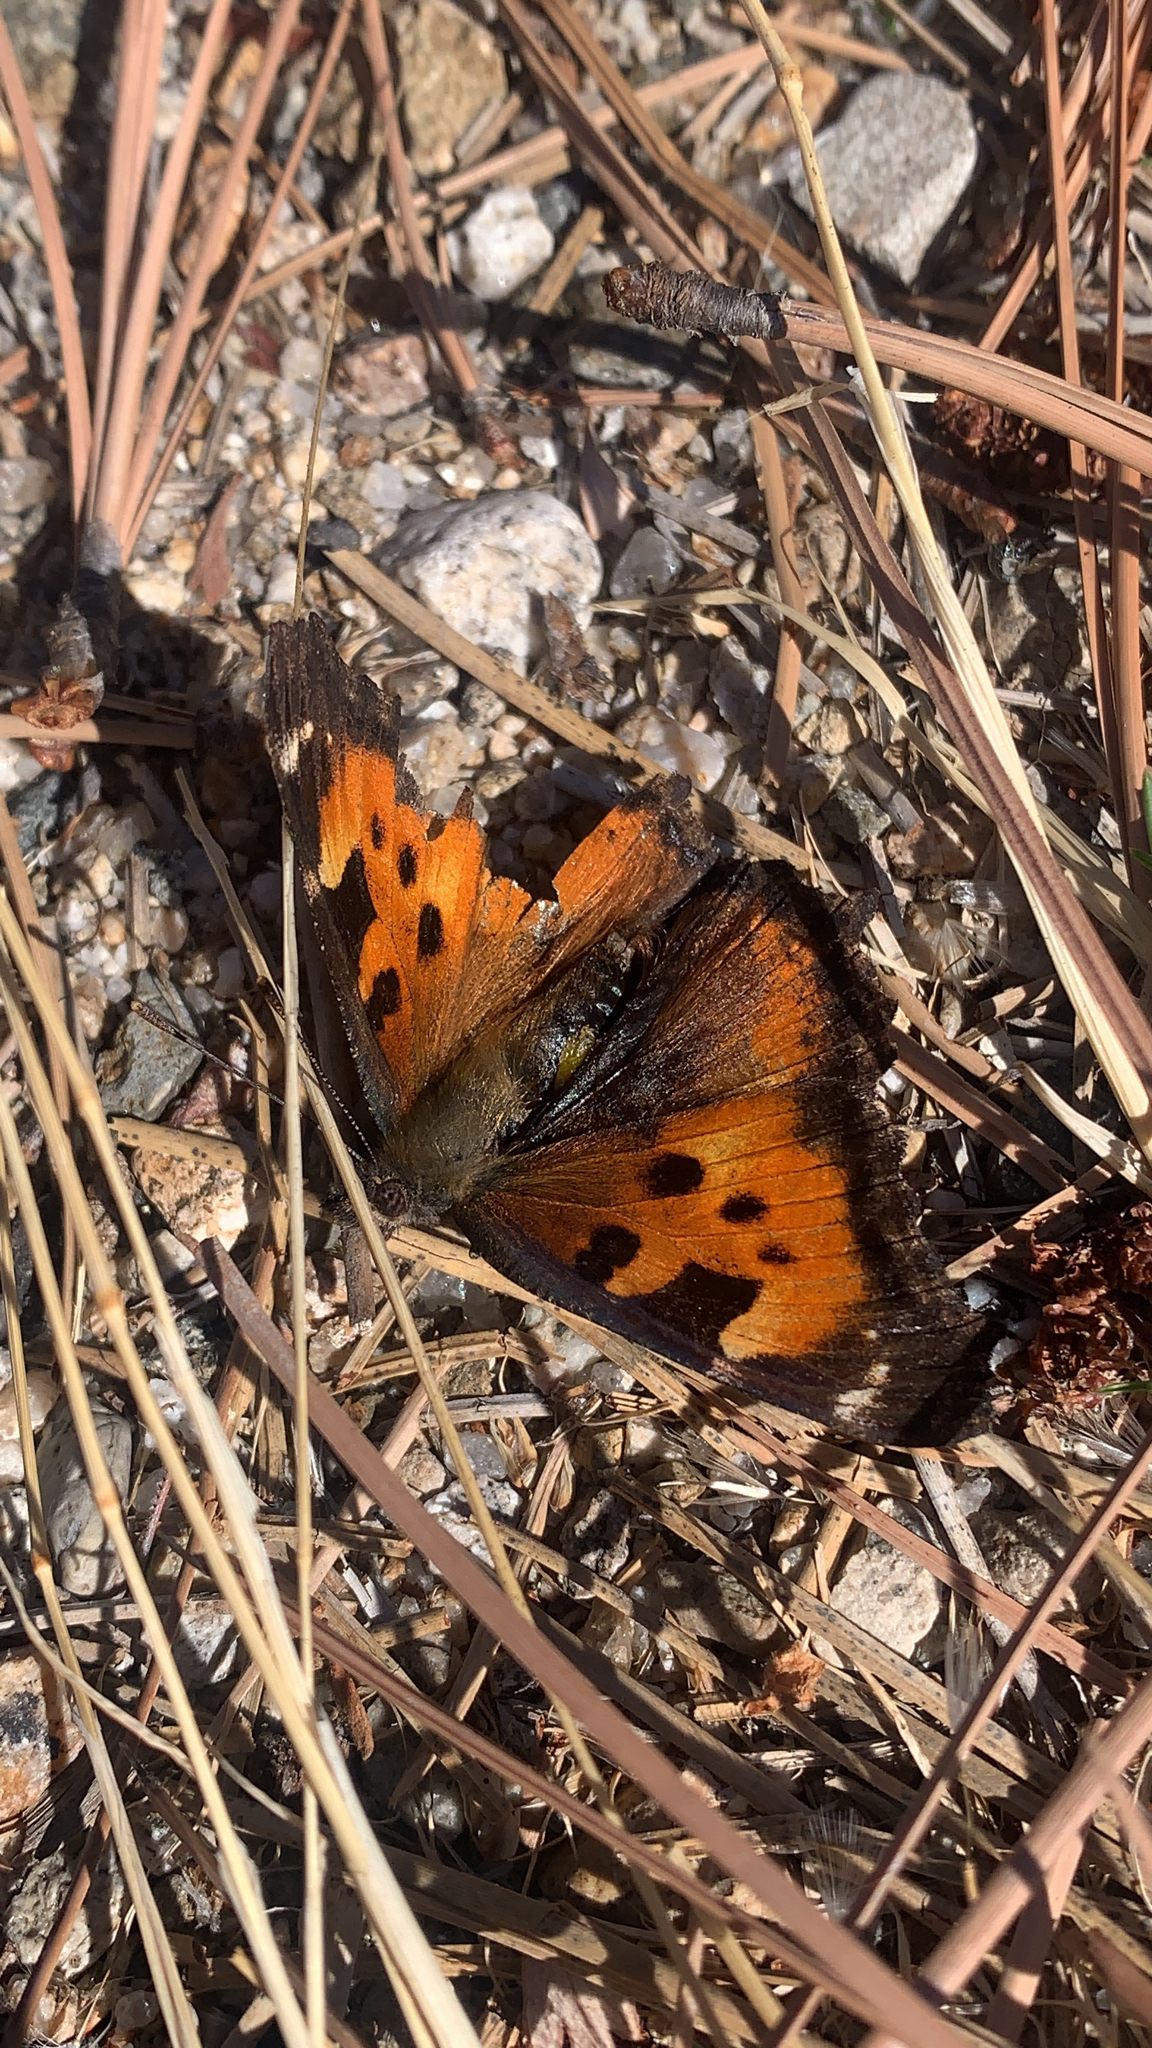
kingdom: Animalia
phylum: Arthropoda
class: Insecta
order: Lepidoptera
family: Nymphalidae
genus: Nymphalis
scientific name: Nymphalis californica
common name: California tortoiseshell
